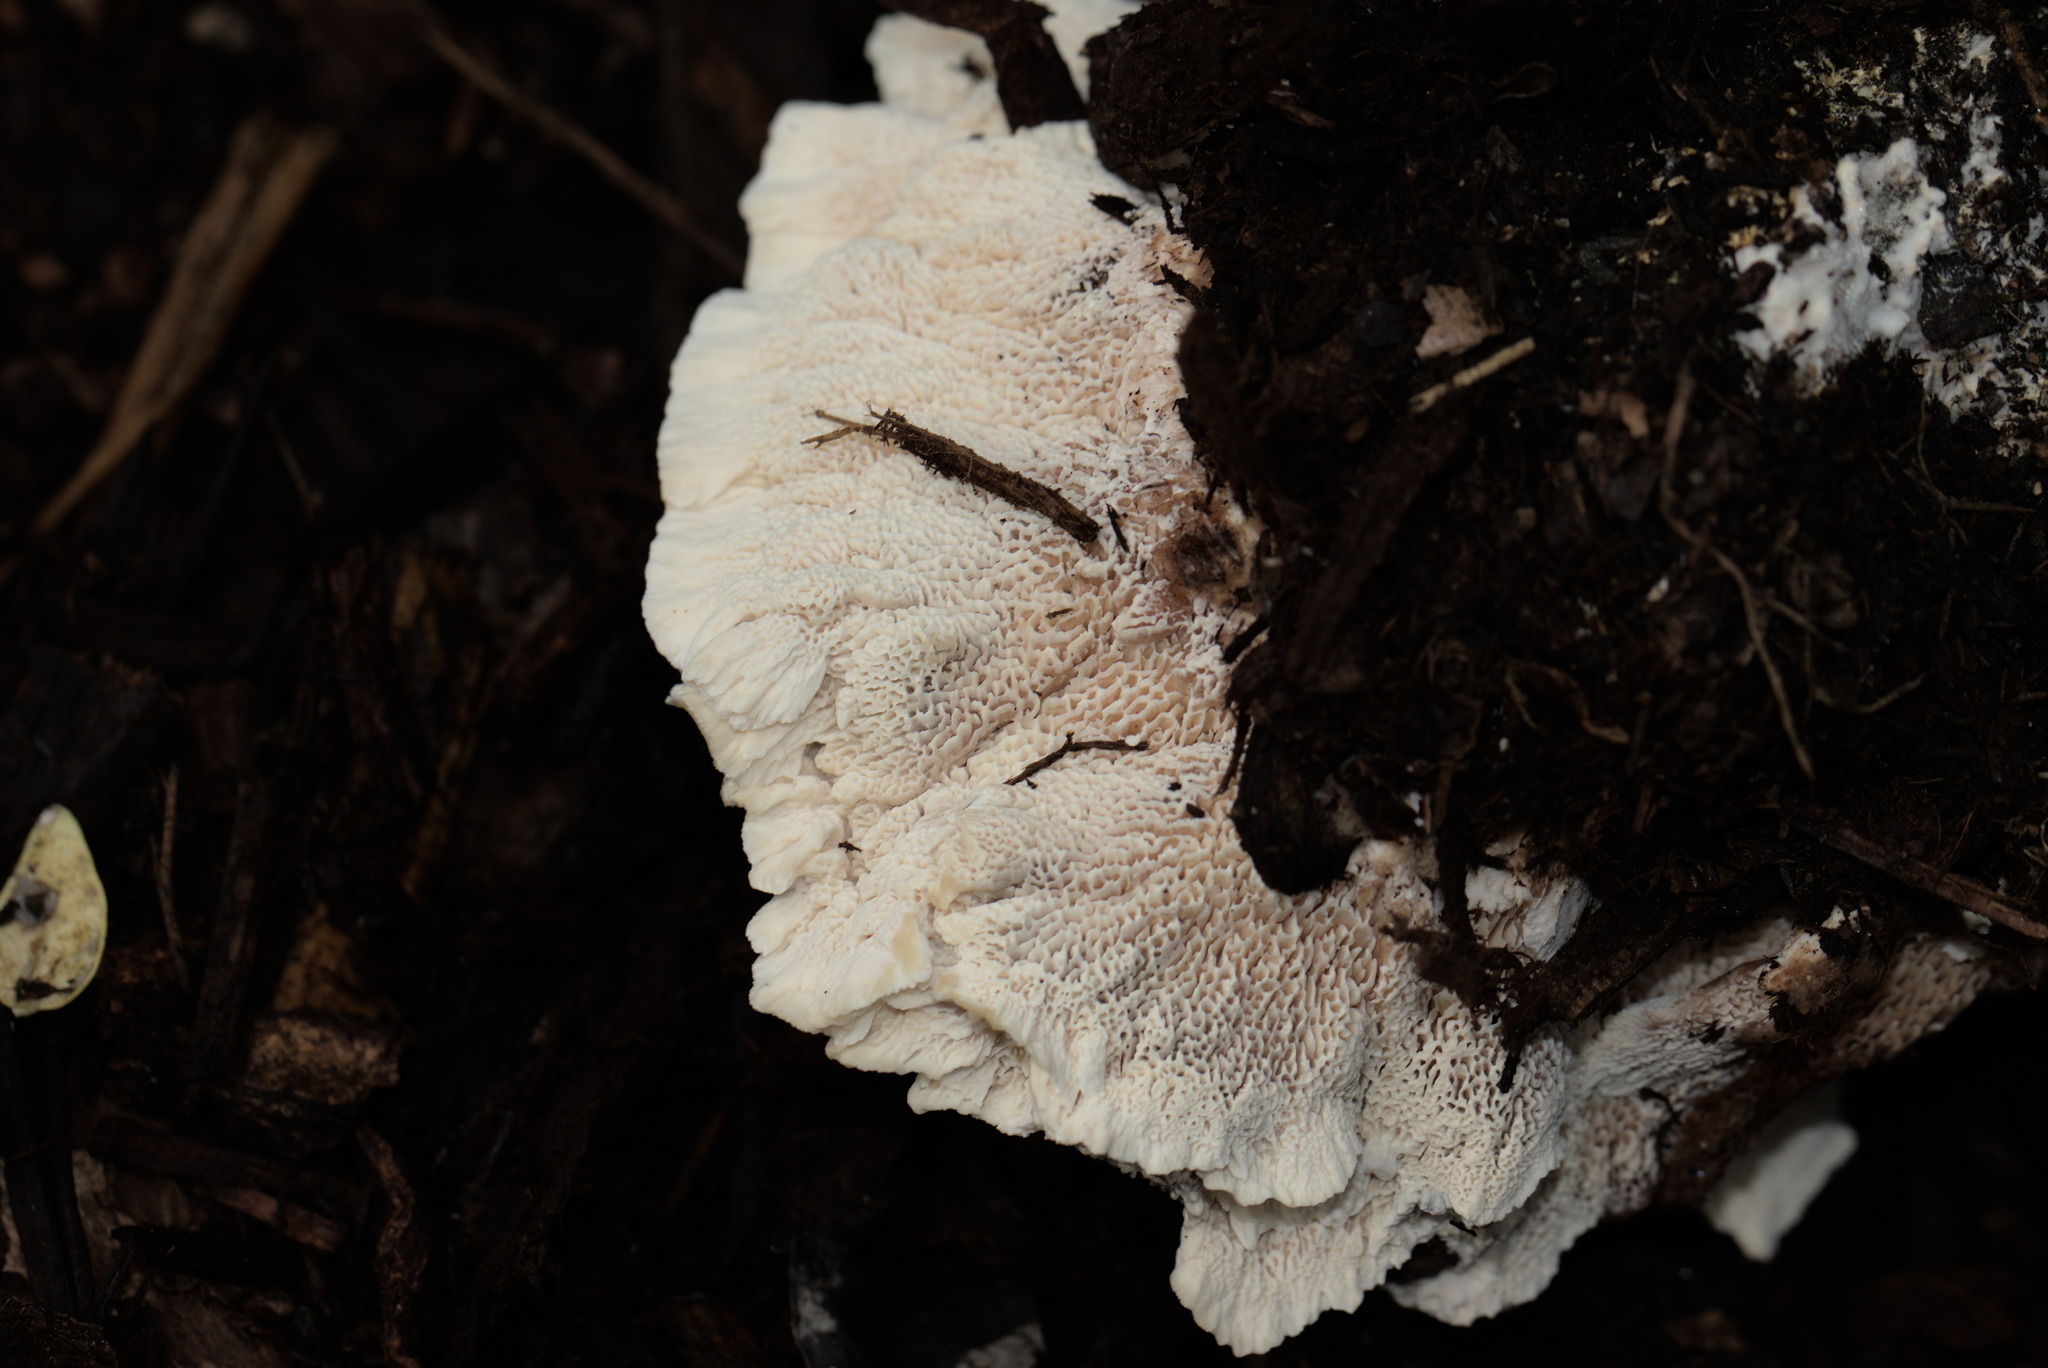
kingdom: Fungi
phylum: Basidiomycota
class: Agaricomycetes
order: Polyporales
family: Podoscyphaceae
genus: Abortiporus
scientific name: Abortiporus biennis
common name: Blushing rosette
